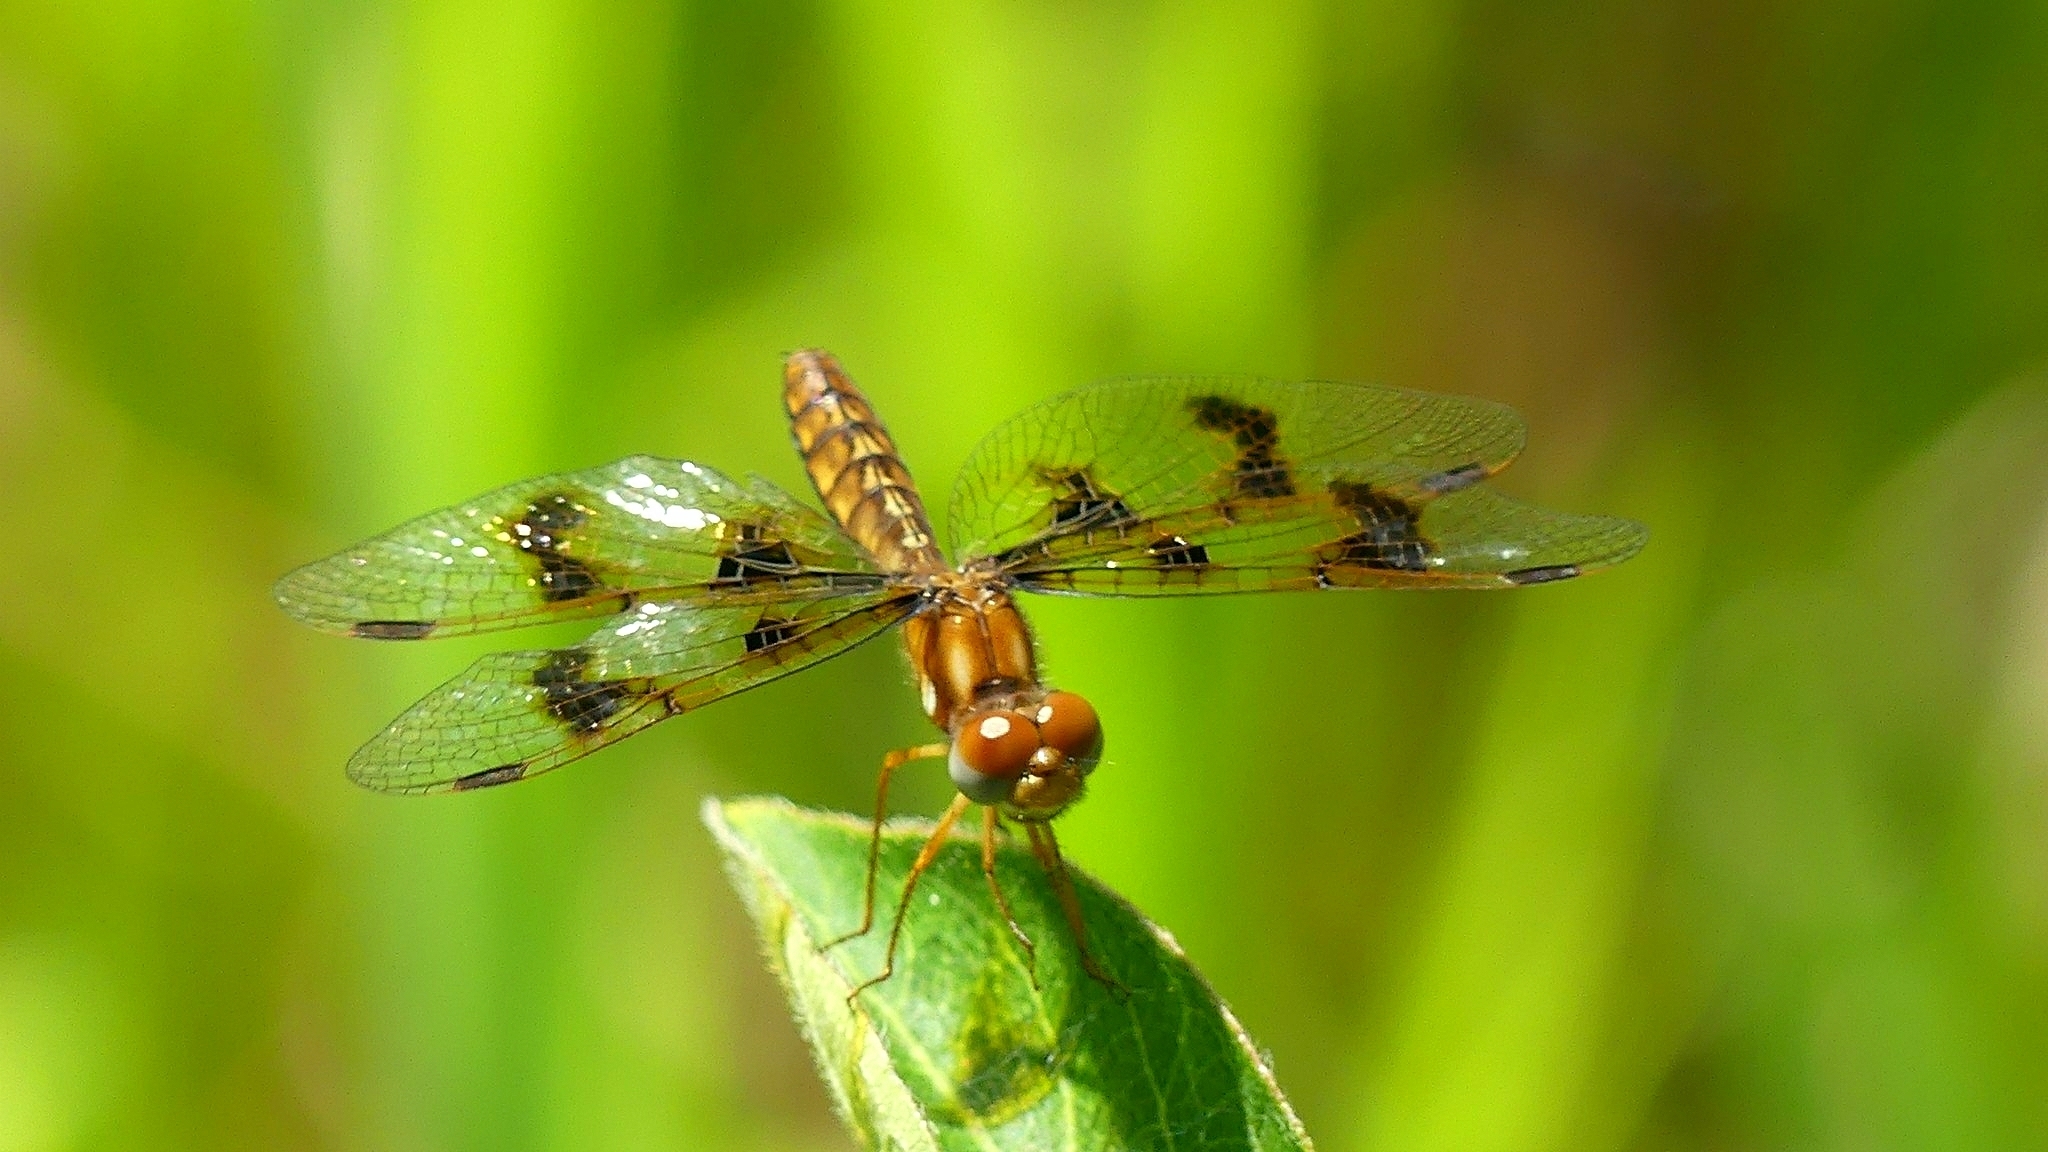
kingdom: Animalia
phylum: Arthropoda
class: Insecta
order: Odonata
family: Libellulidae
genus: Perithemis
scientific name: Perithemis tenera
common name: Eastern amberwing
